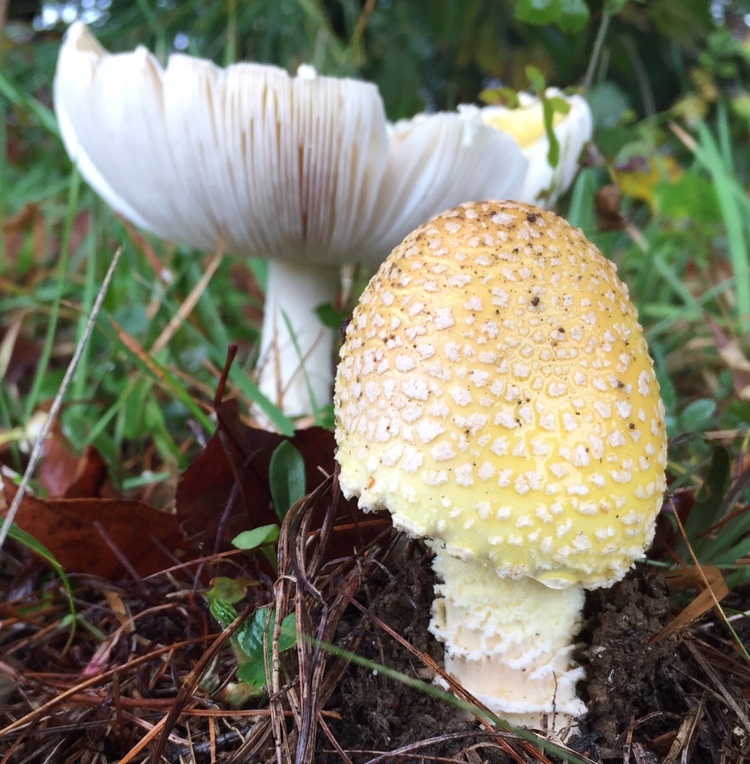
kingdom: Fungi
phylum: Basidiomycota
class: Agaricomycetes
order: Agaricales
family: Amanitaceae
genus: Amanita
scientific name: Amanita muscaria
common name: Fly agaric
